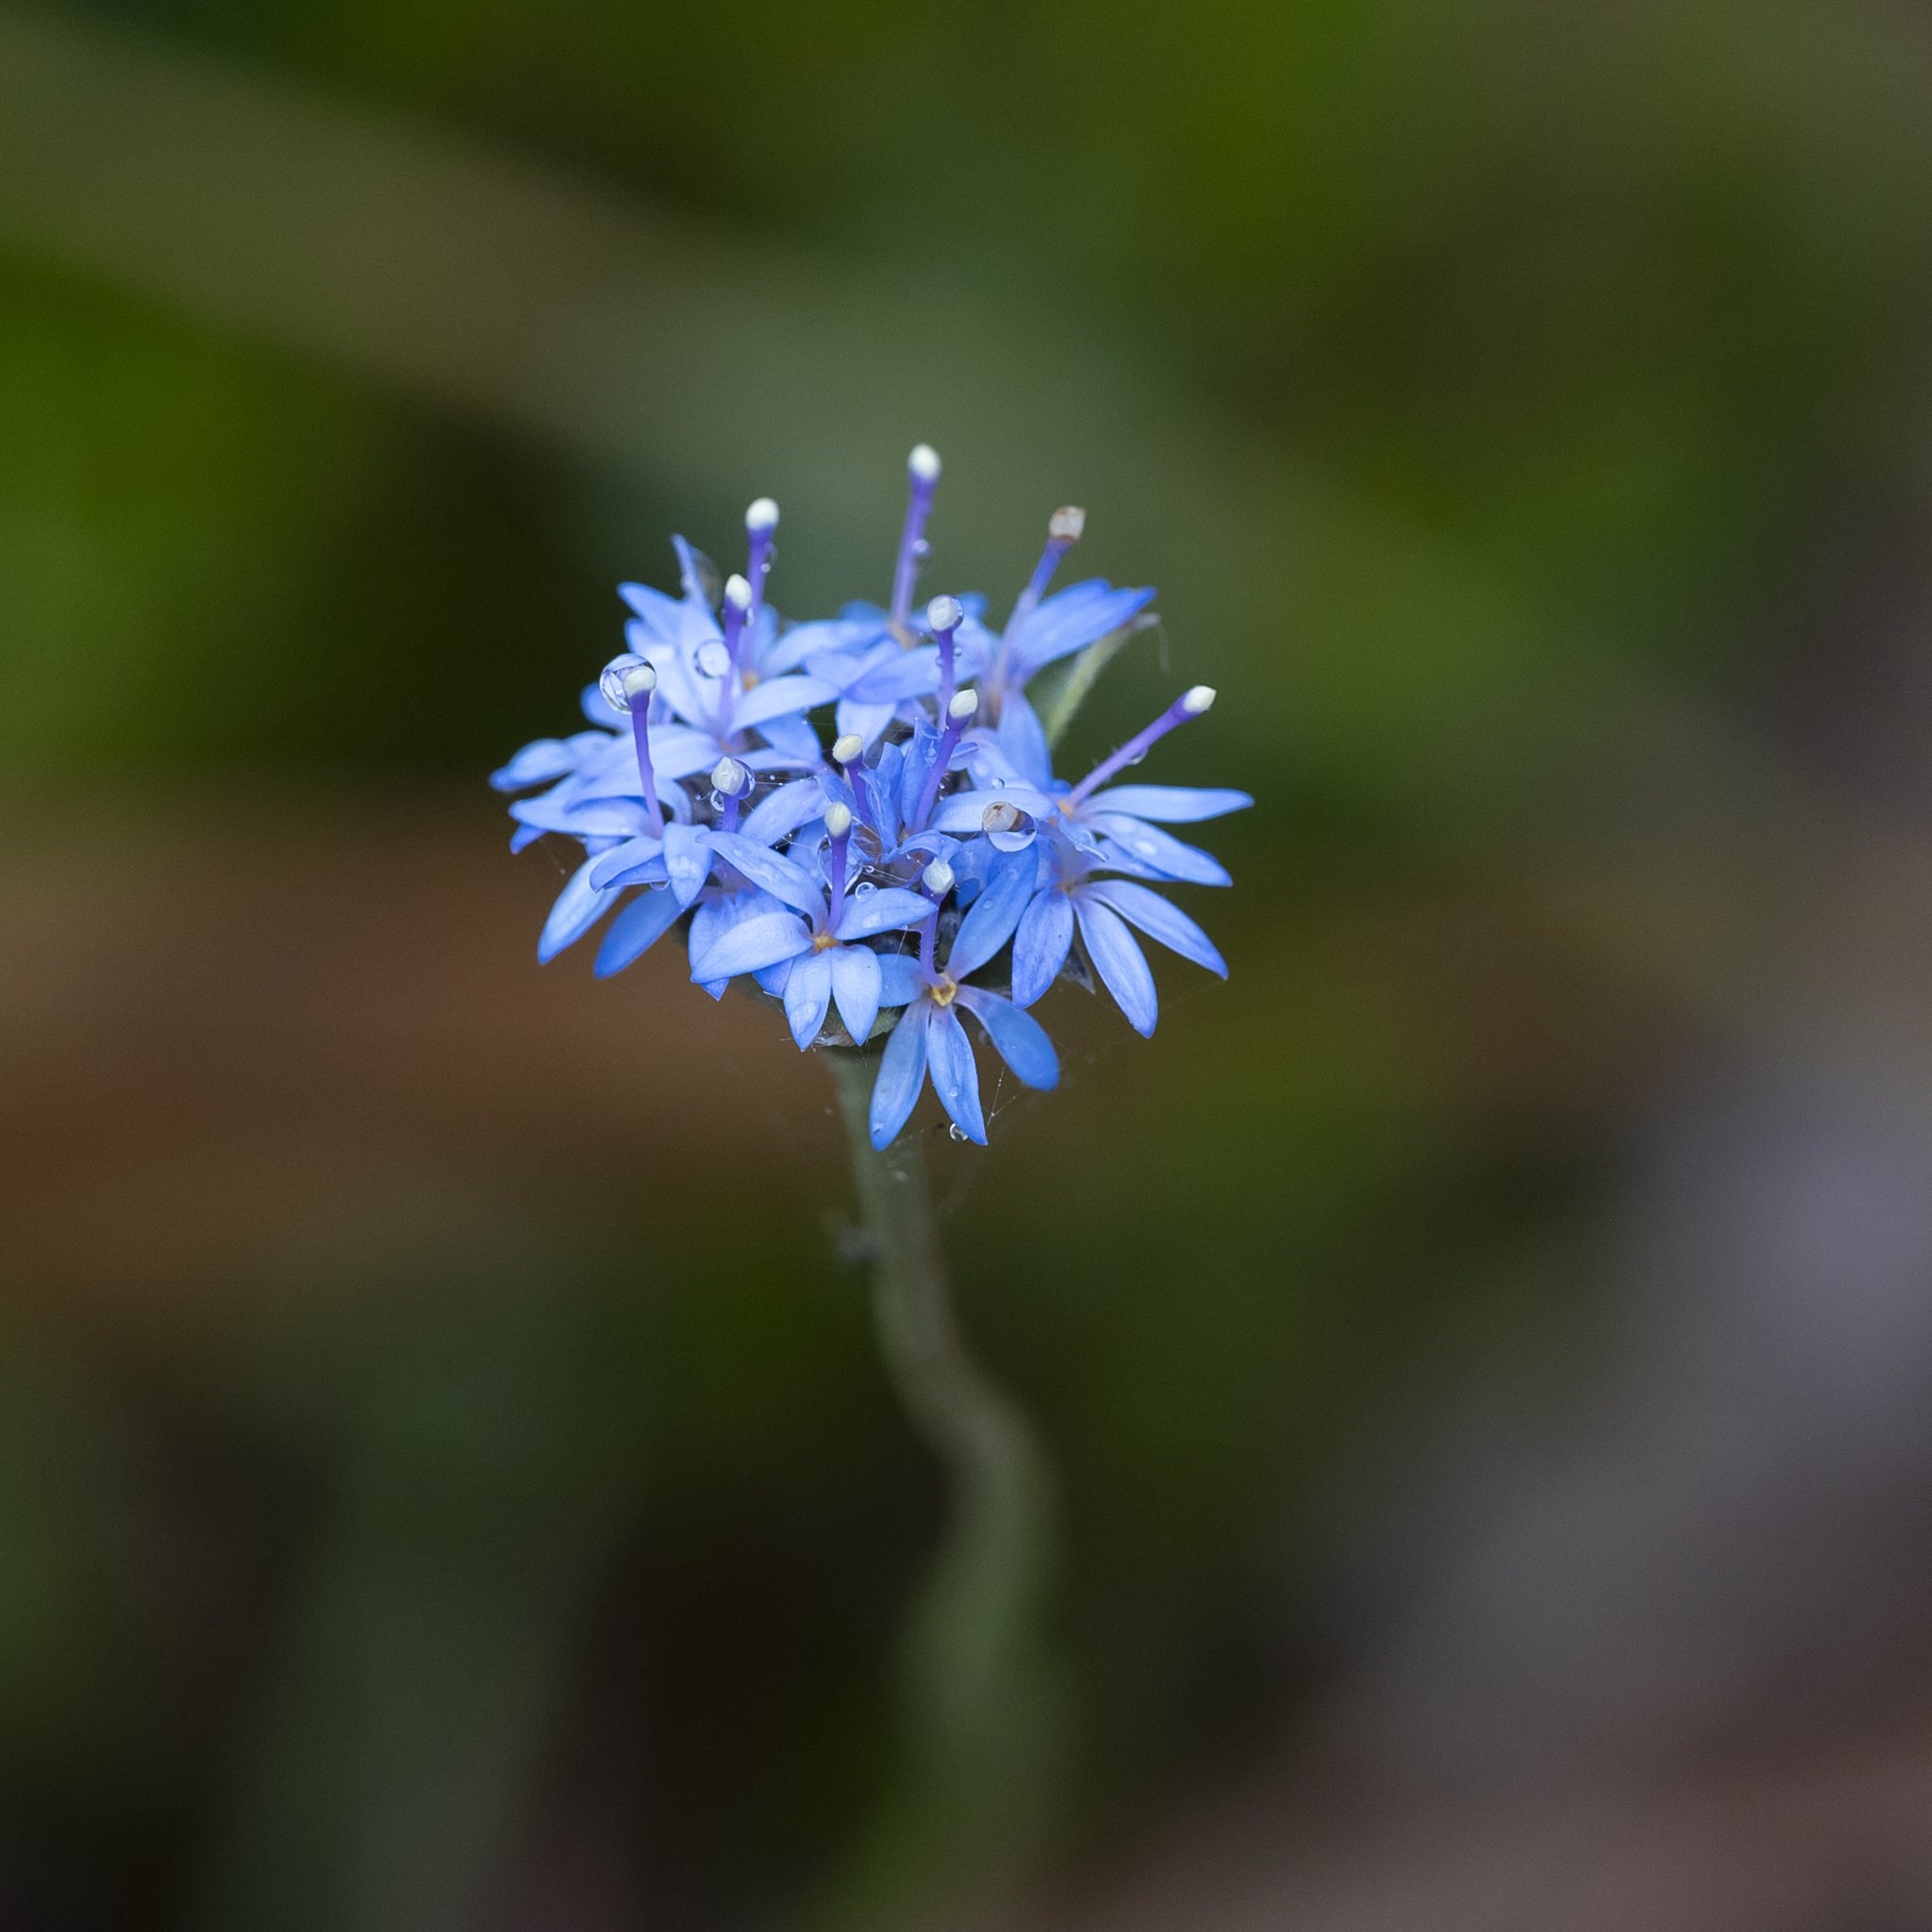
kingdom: Plantae
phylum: Tracheophyta
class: Magnoliopsida
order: Asterales
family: Goodeniaceae
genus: Brunonia
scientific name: Brunonia australis
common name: Blue pincushion
